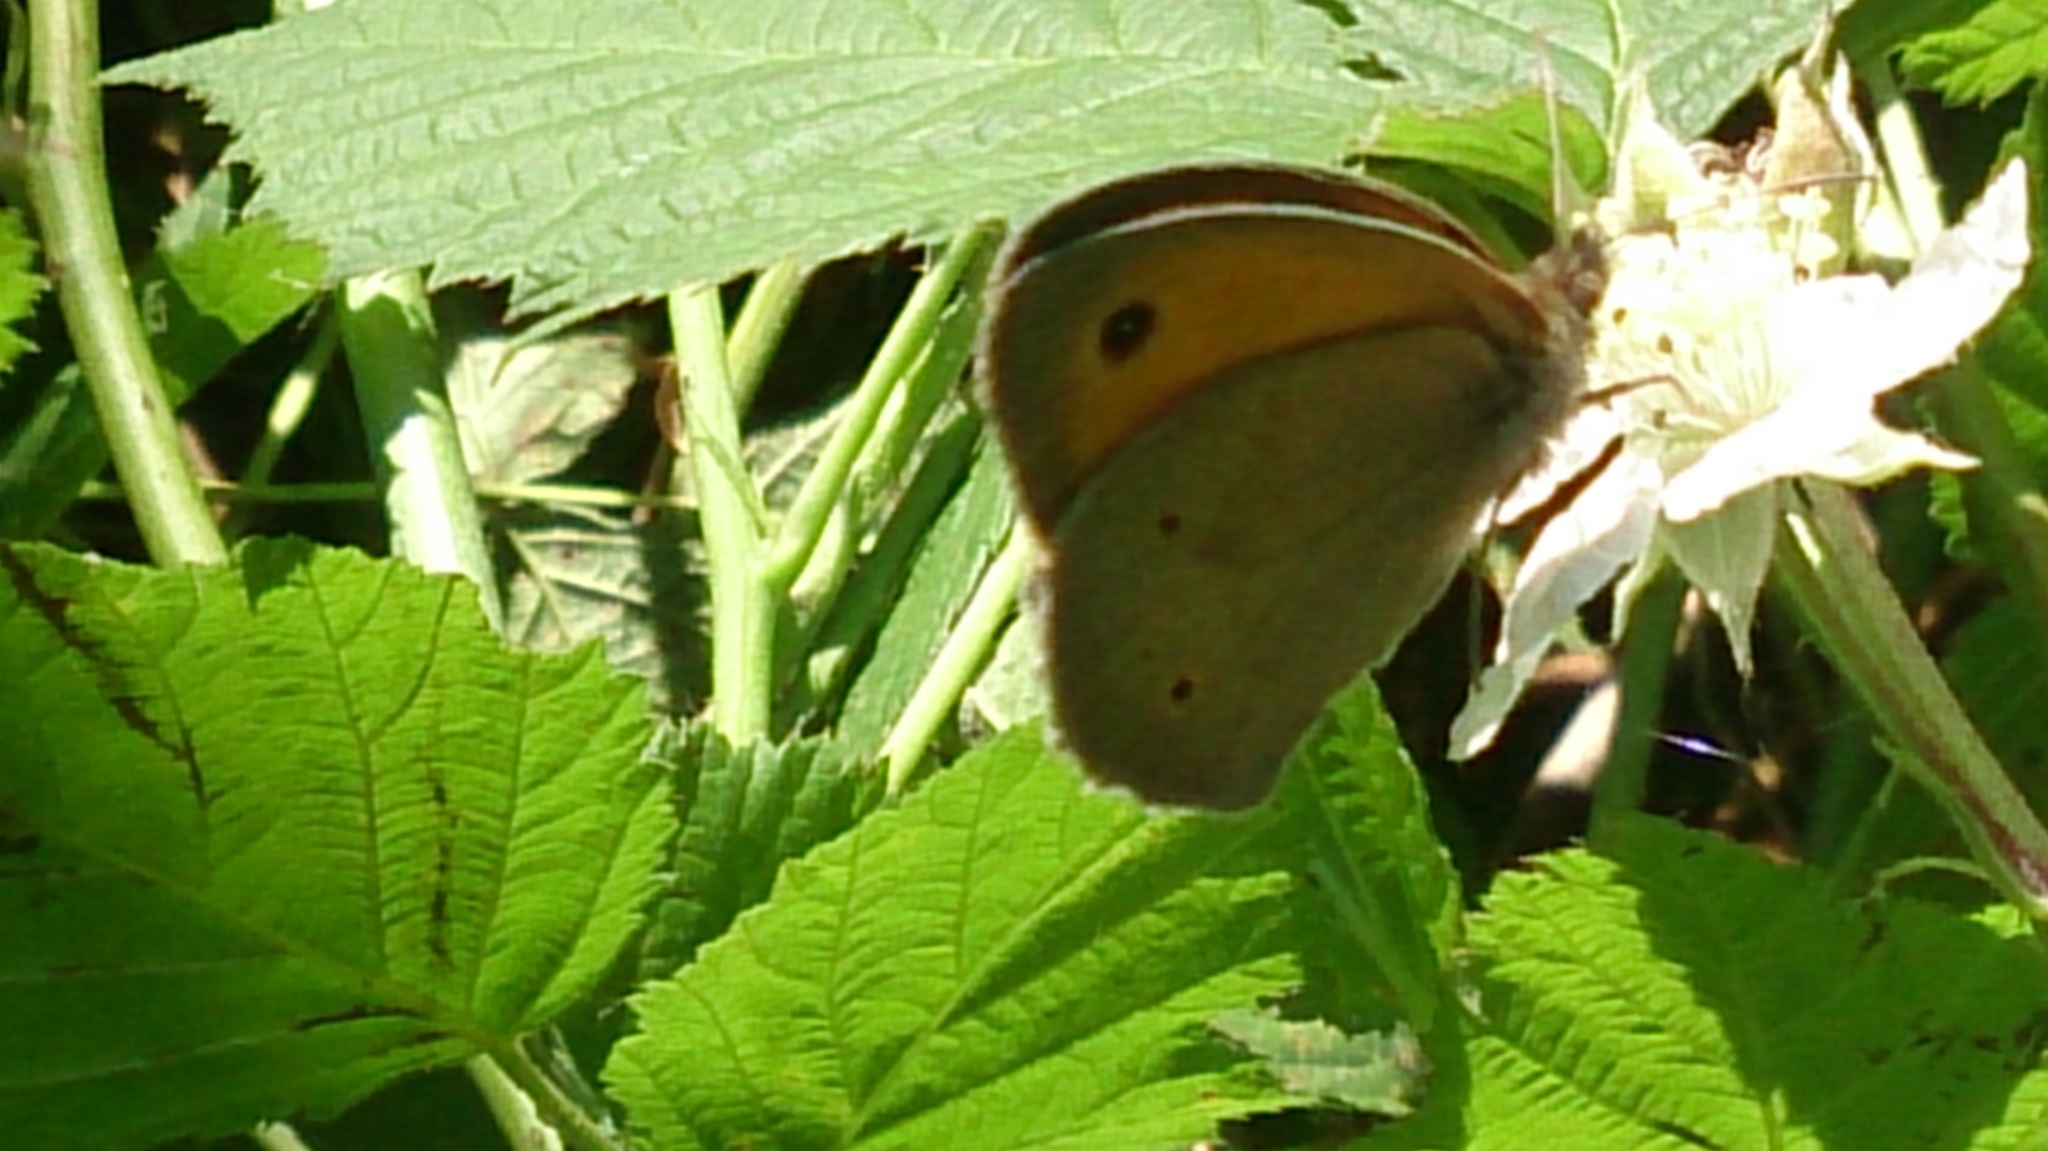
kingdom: Animalia
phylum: Arthropoda
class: Insecta
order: Lepidoptera
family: Nymphalidae
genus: Maniola
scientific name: Maniola jurtina
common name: Meadow brown
